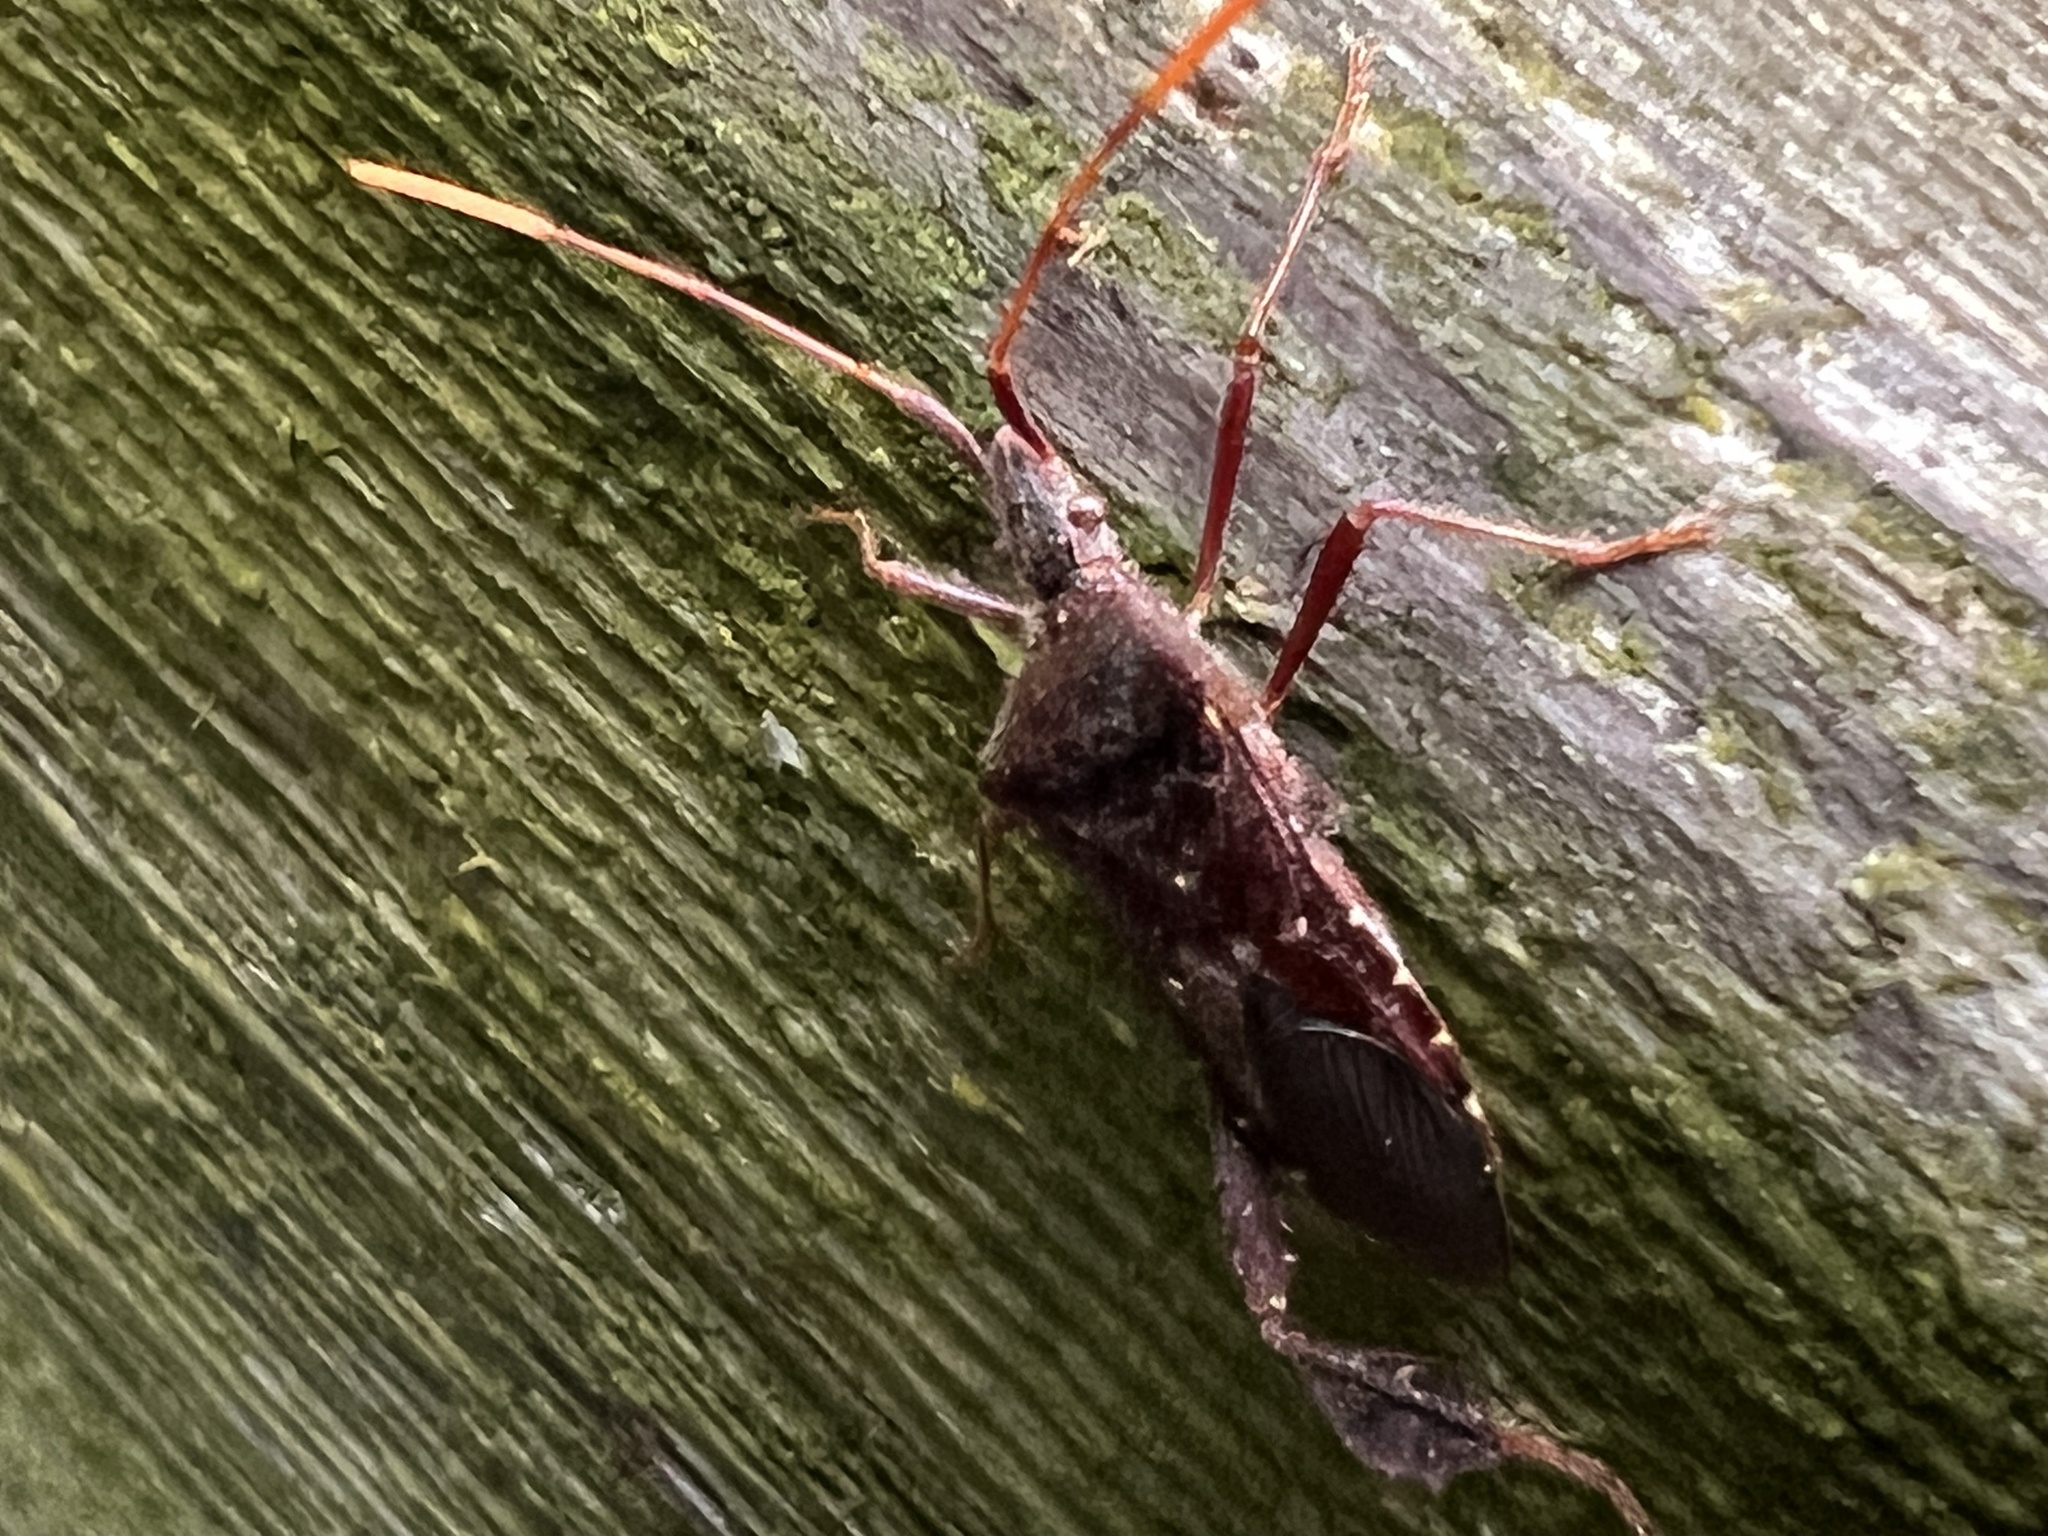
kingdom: Animalia
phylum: Arthropoda
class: Insecta
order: Hemiptera
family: Coreidae
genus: Leptoglossus
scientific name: Leptoglossus oppositus
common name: Northern leaf-footed bug
